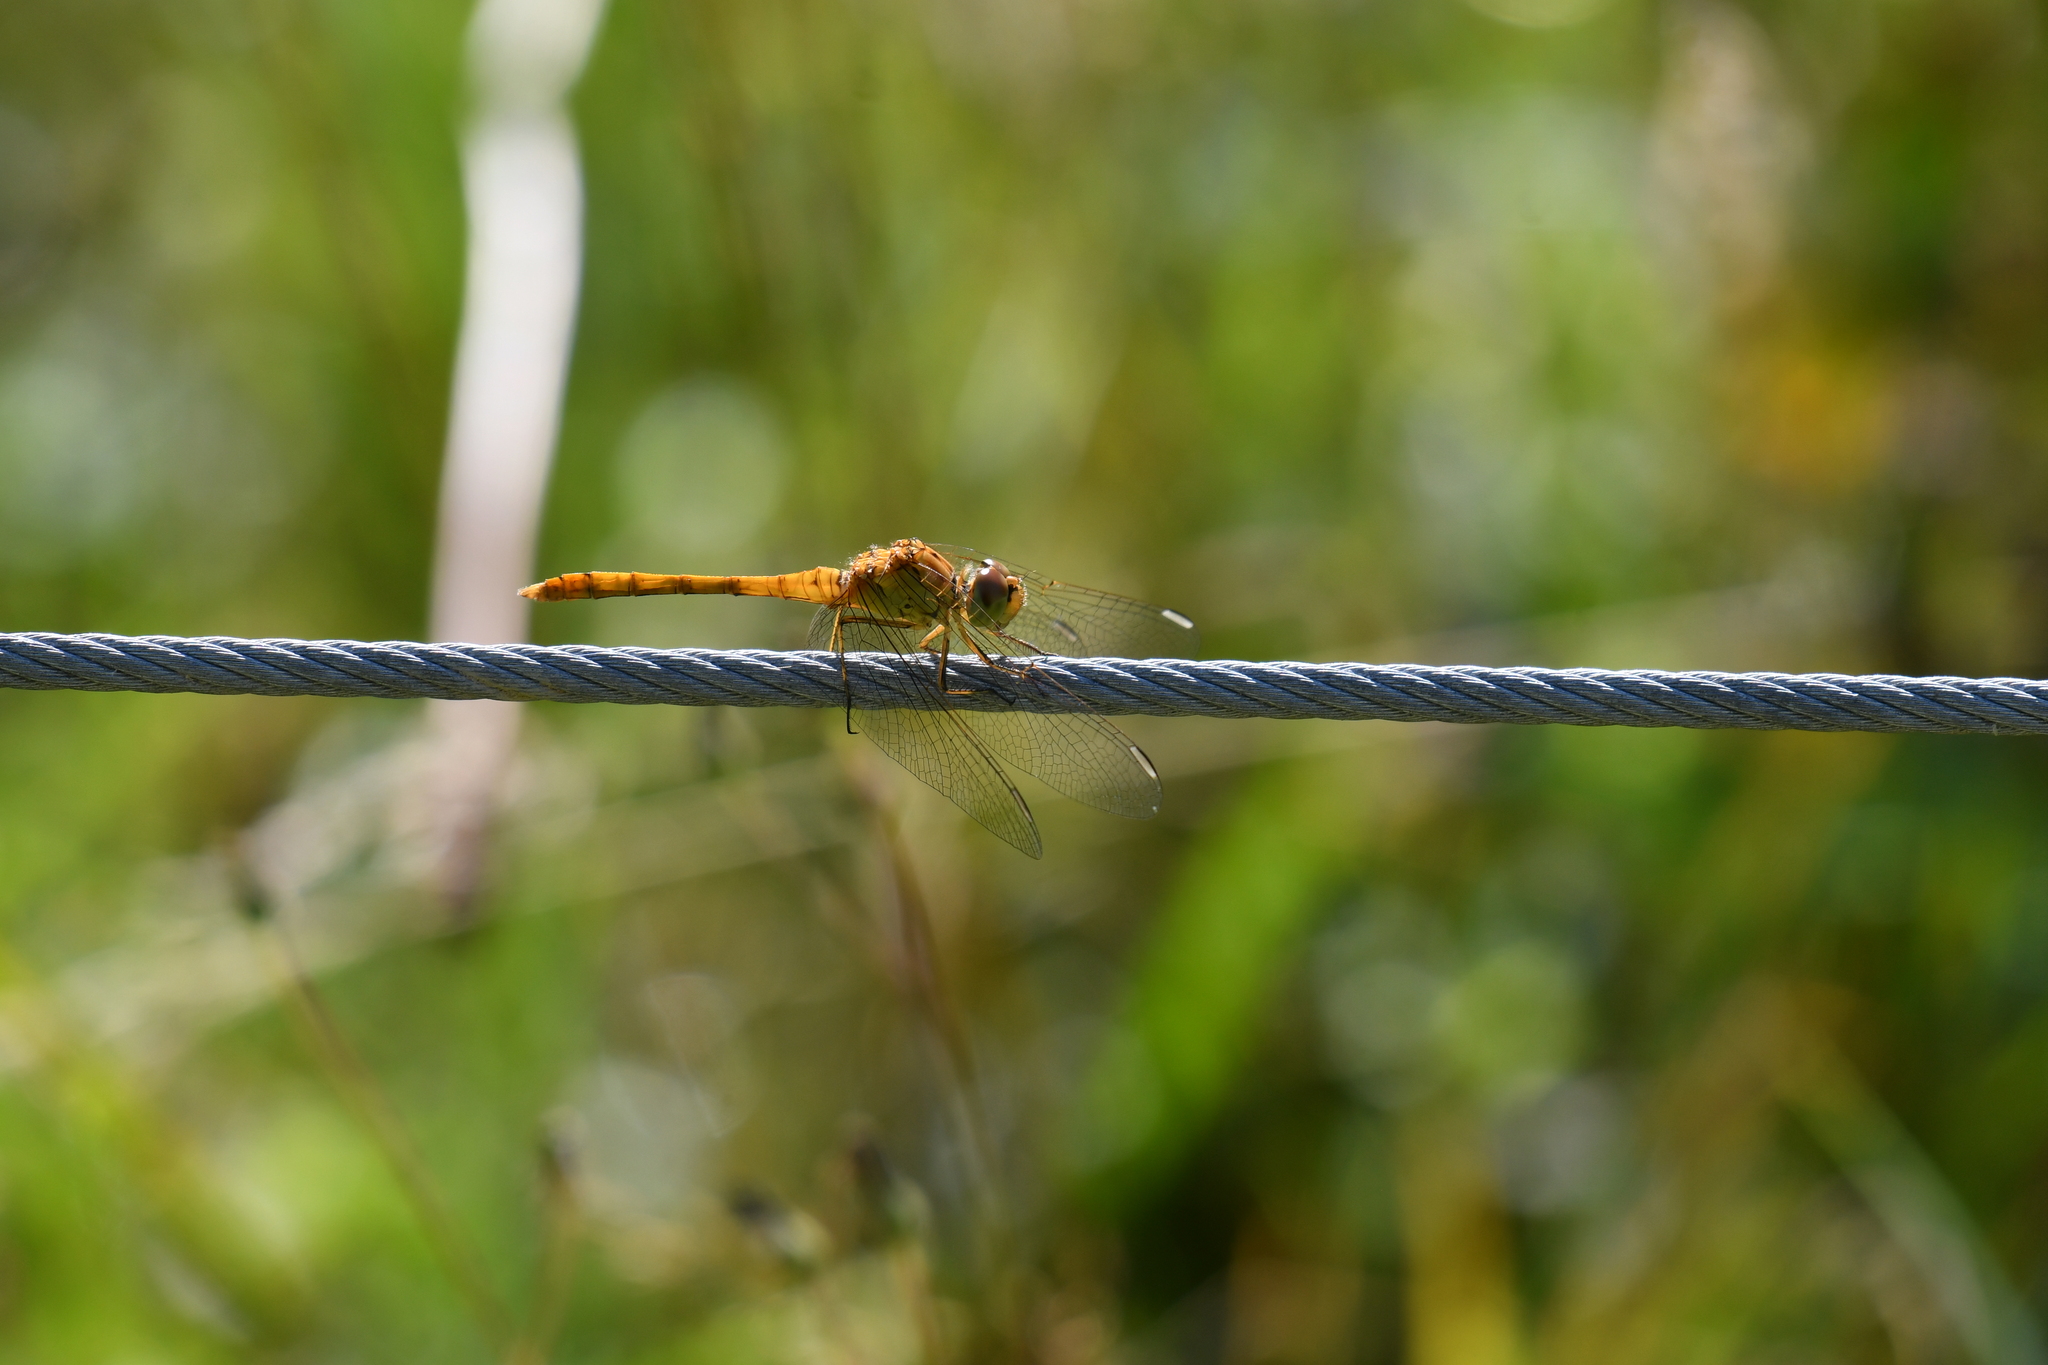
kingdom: Animalia
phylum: Arthropoda
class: Insecta
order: Odonata
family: Libellulidae
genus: Sympetrum
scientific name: Sympetrum meridionale
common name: Southern darter
